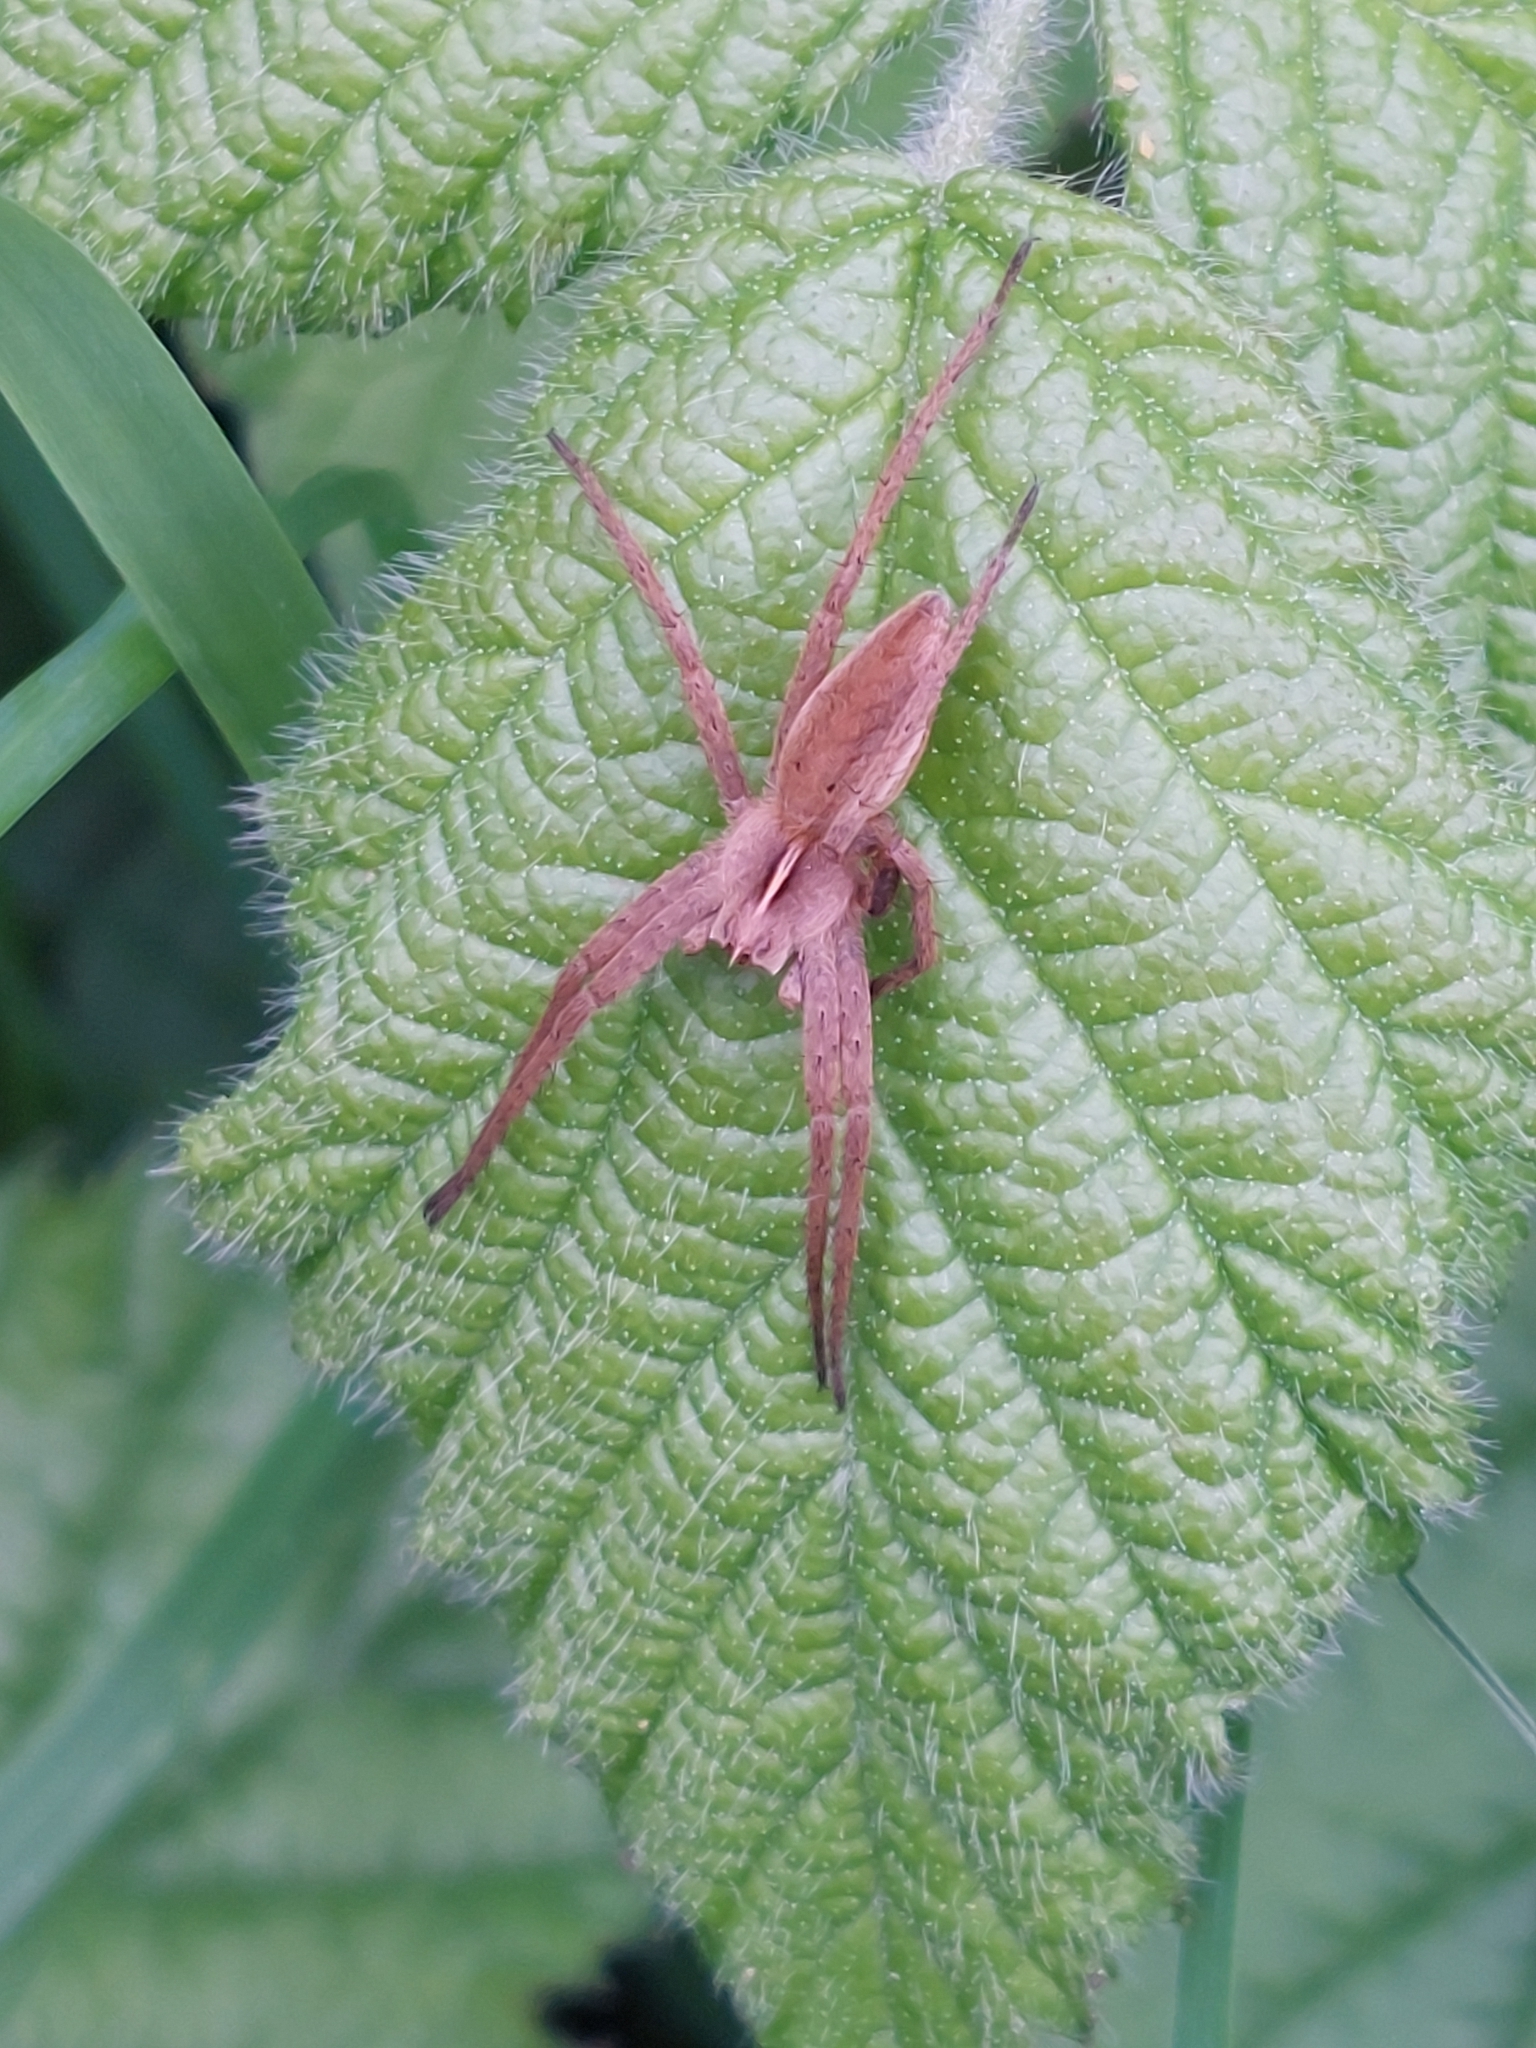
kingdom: Animalia
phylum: Arthropoda
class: Arachnida
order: Araneae
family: Pisauridae
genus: Pisaura
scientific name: Pisaura mirabilis
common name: Tent spider
